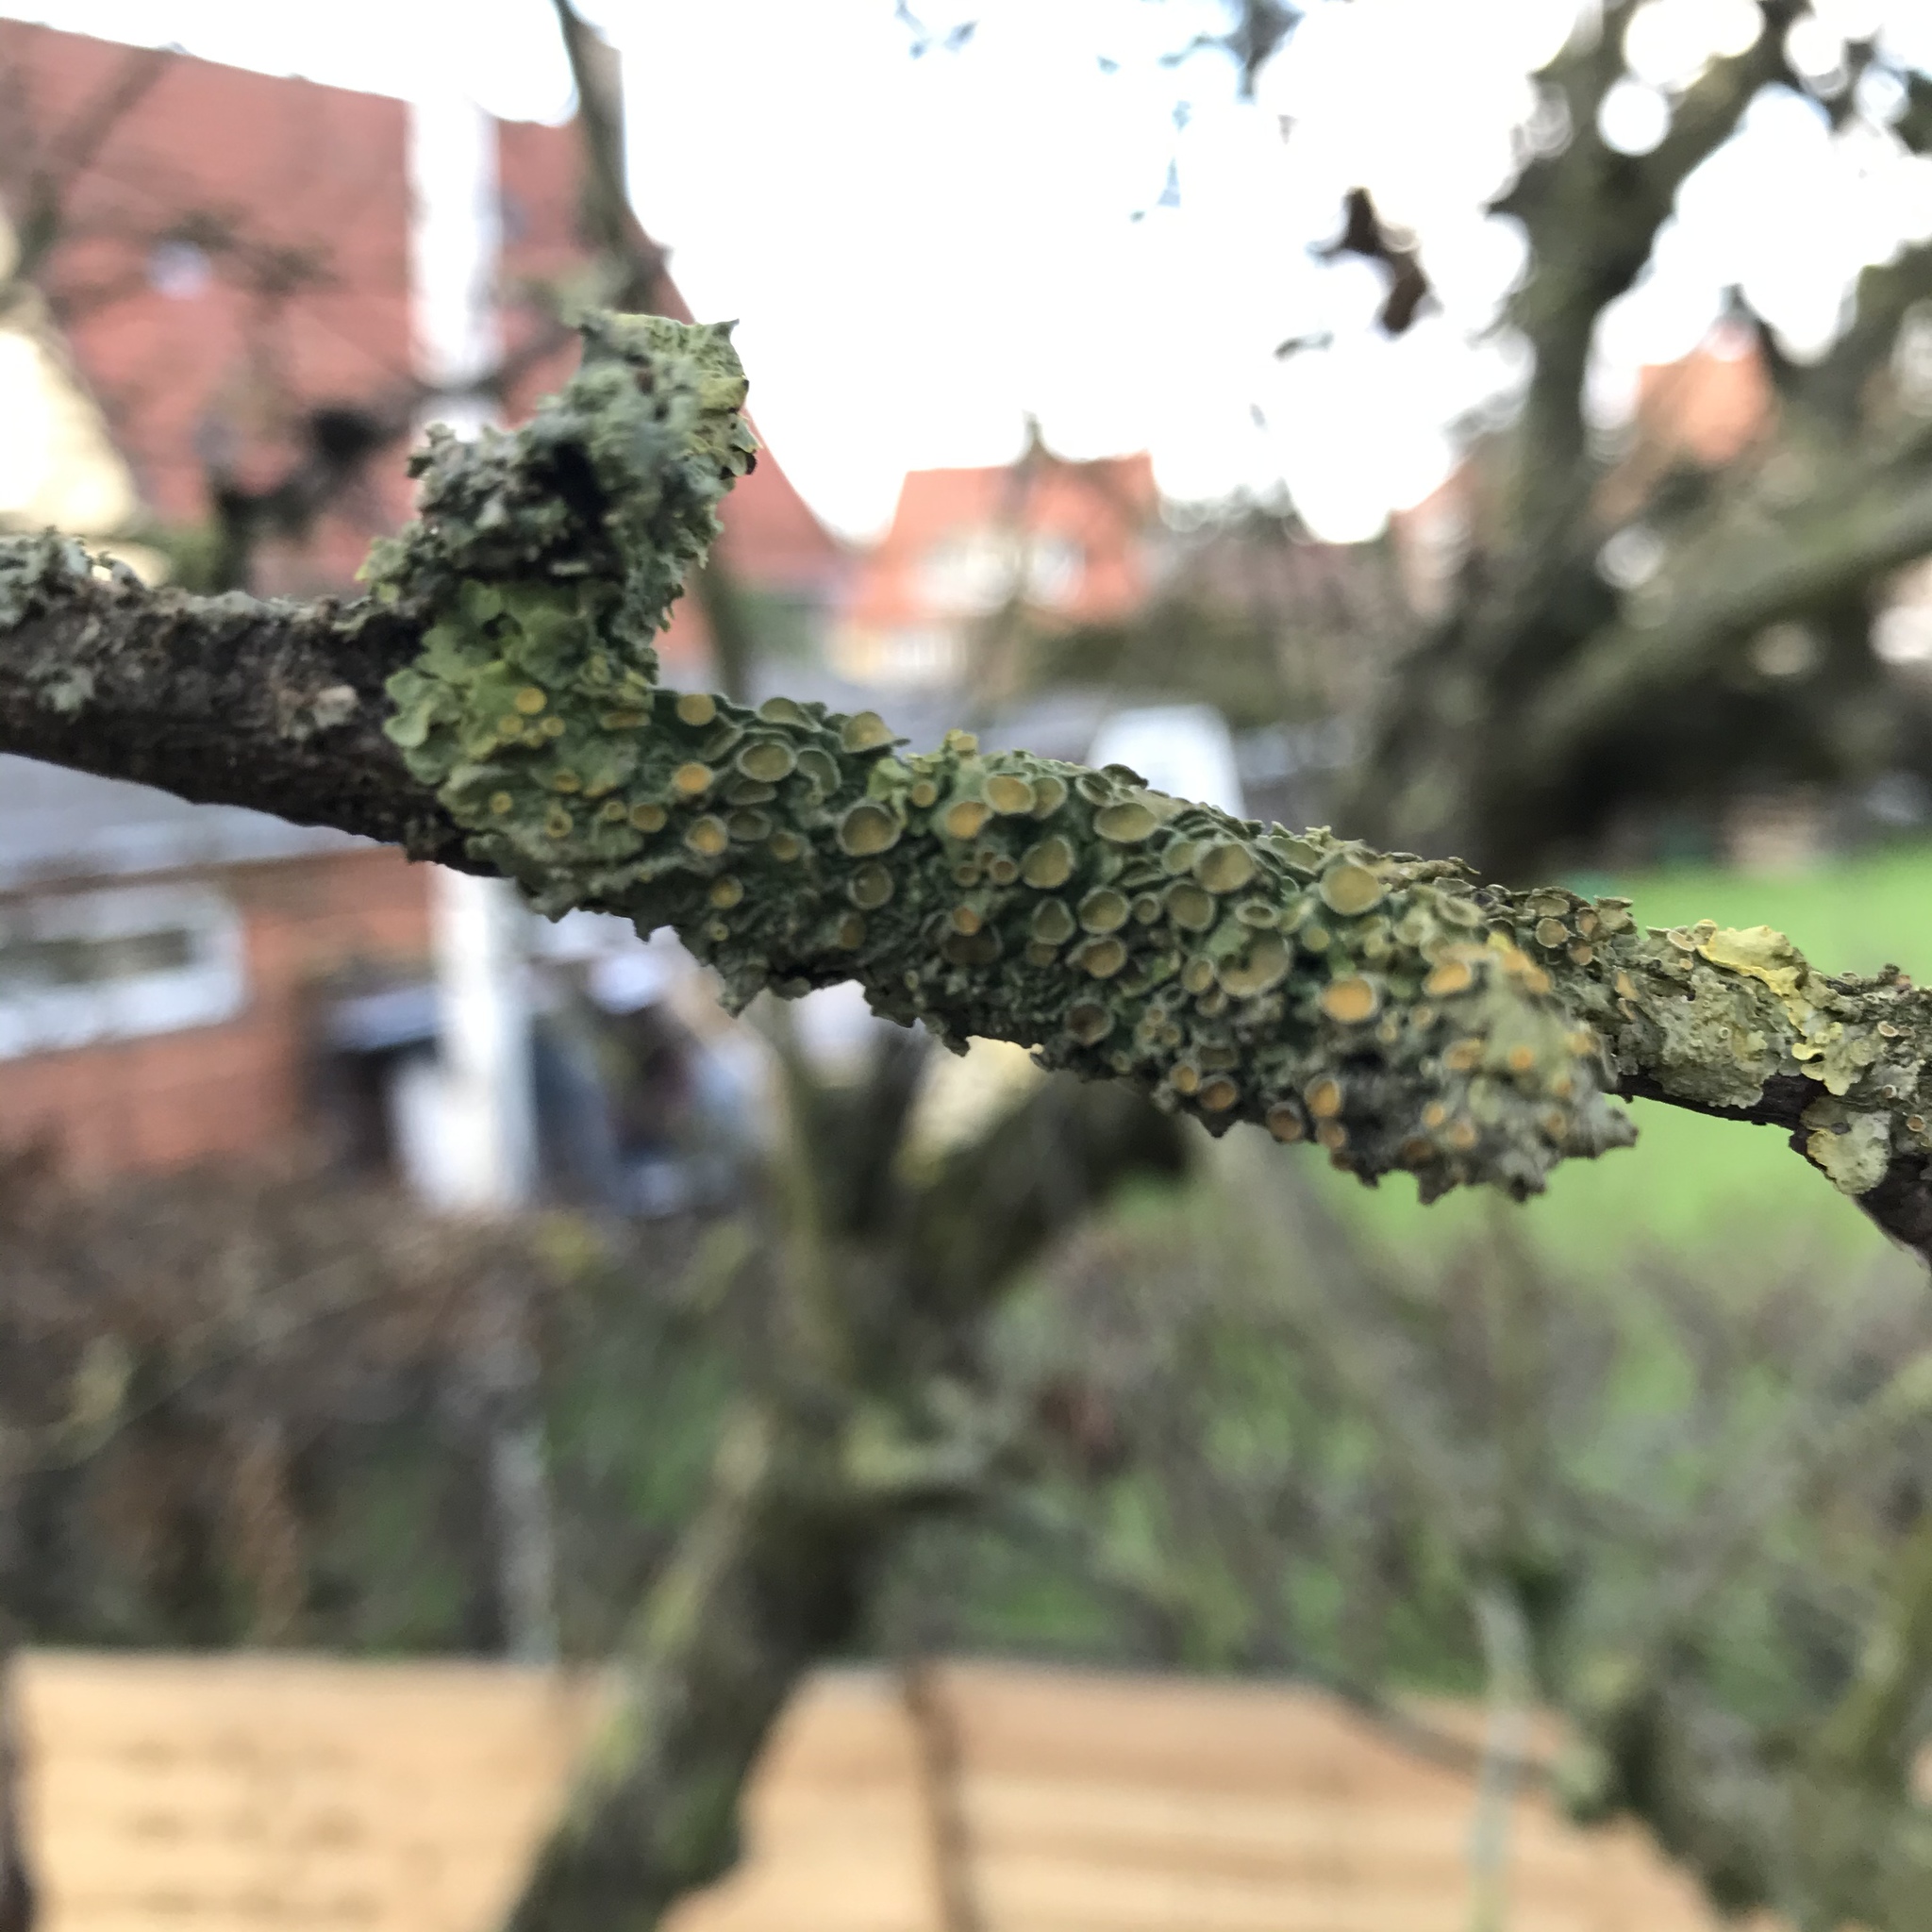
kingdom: Fungi
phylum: Ascomycota
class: Lecanoromycetes
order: Teloschistales
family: Teloschistaceae
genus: Xanthoria
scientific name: Xanthoria parietina
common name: Common orange lichen
